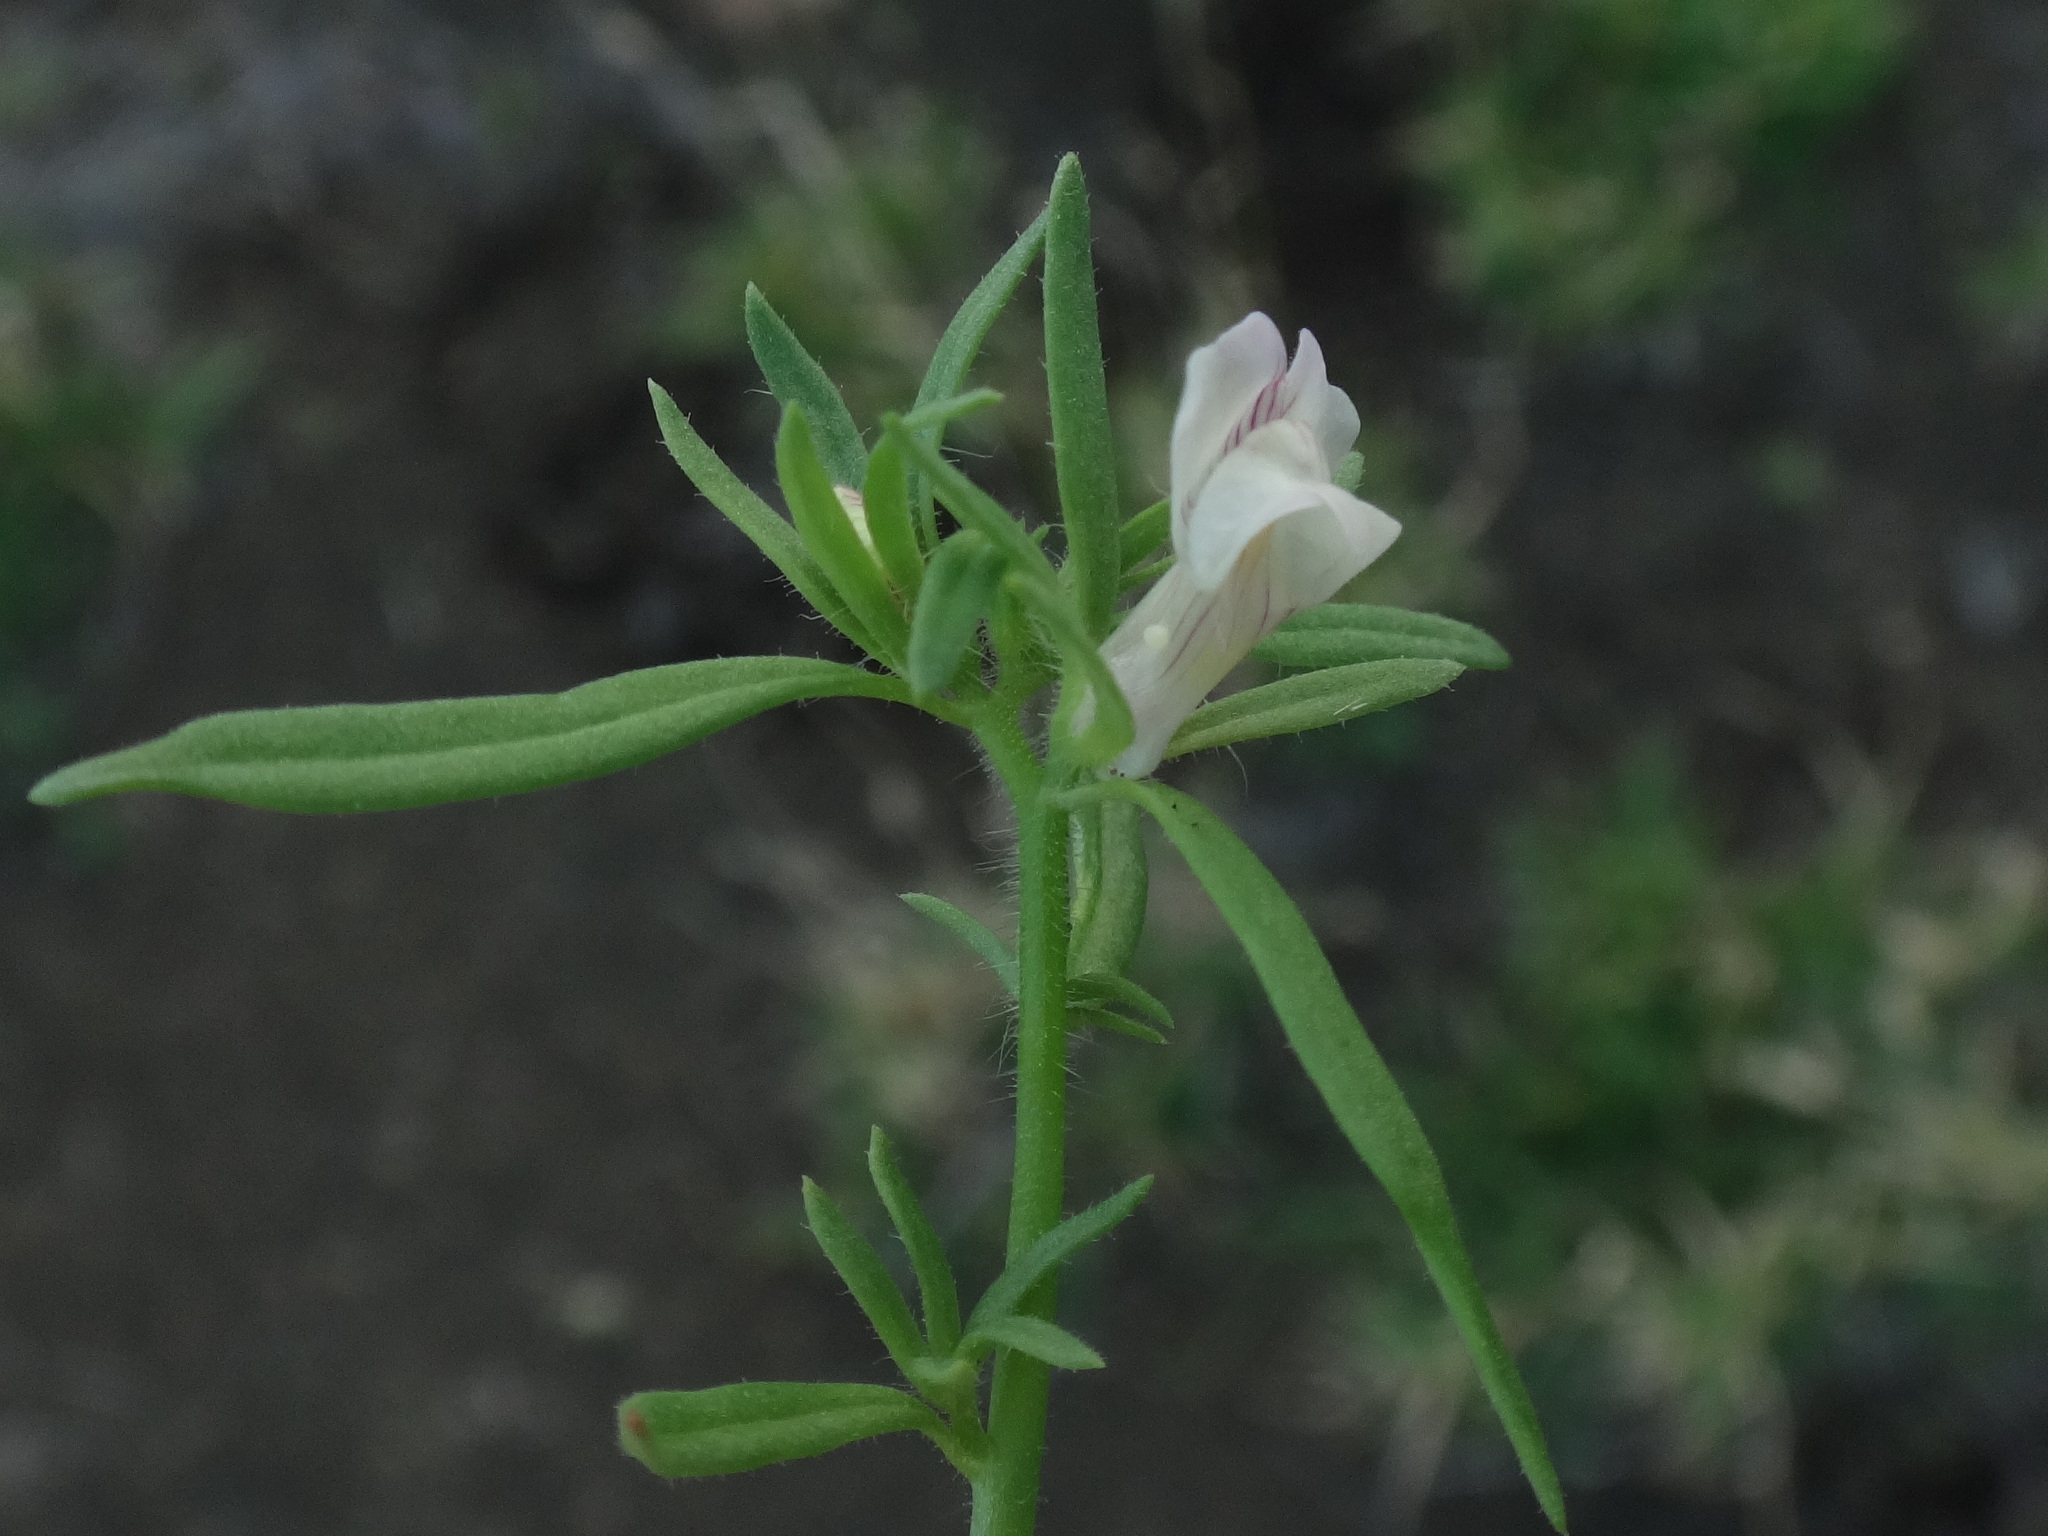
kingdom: Plantae
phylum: Tracheophyta
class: Magnoliopsida
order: Lamiales
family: Plantaginaceae
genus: Misopates
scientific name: Misopates orontium
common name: Weasel's-snout
